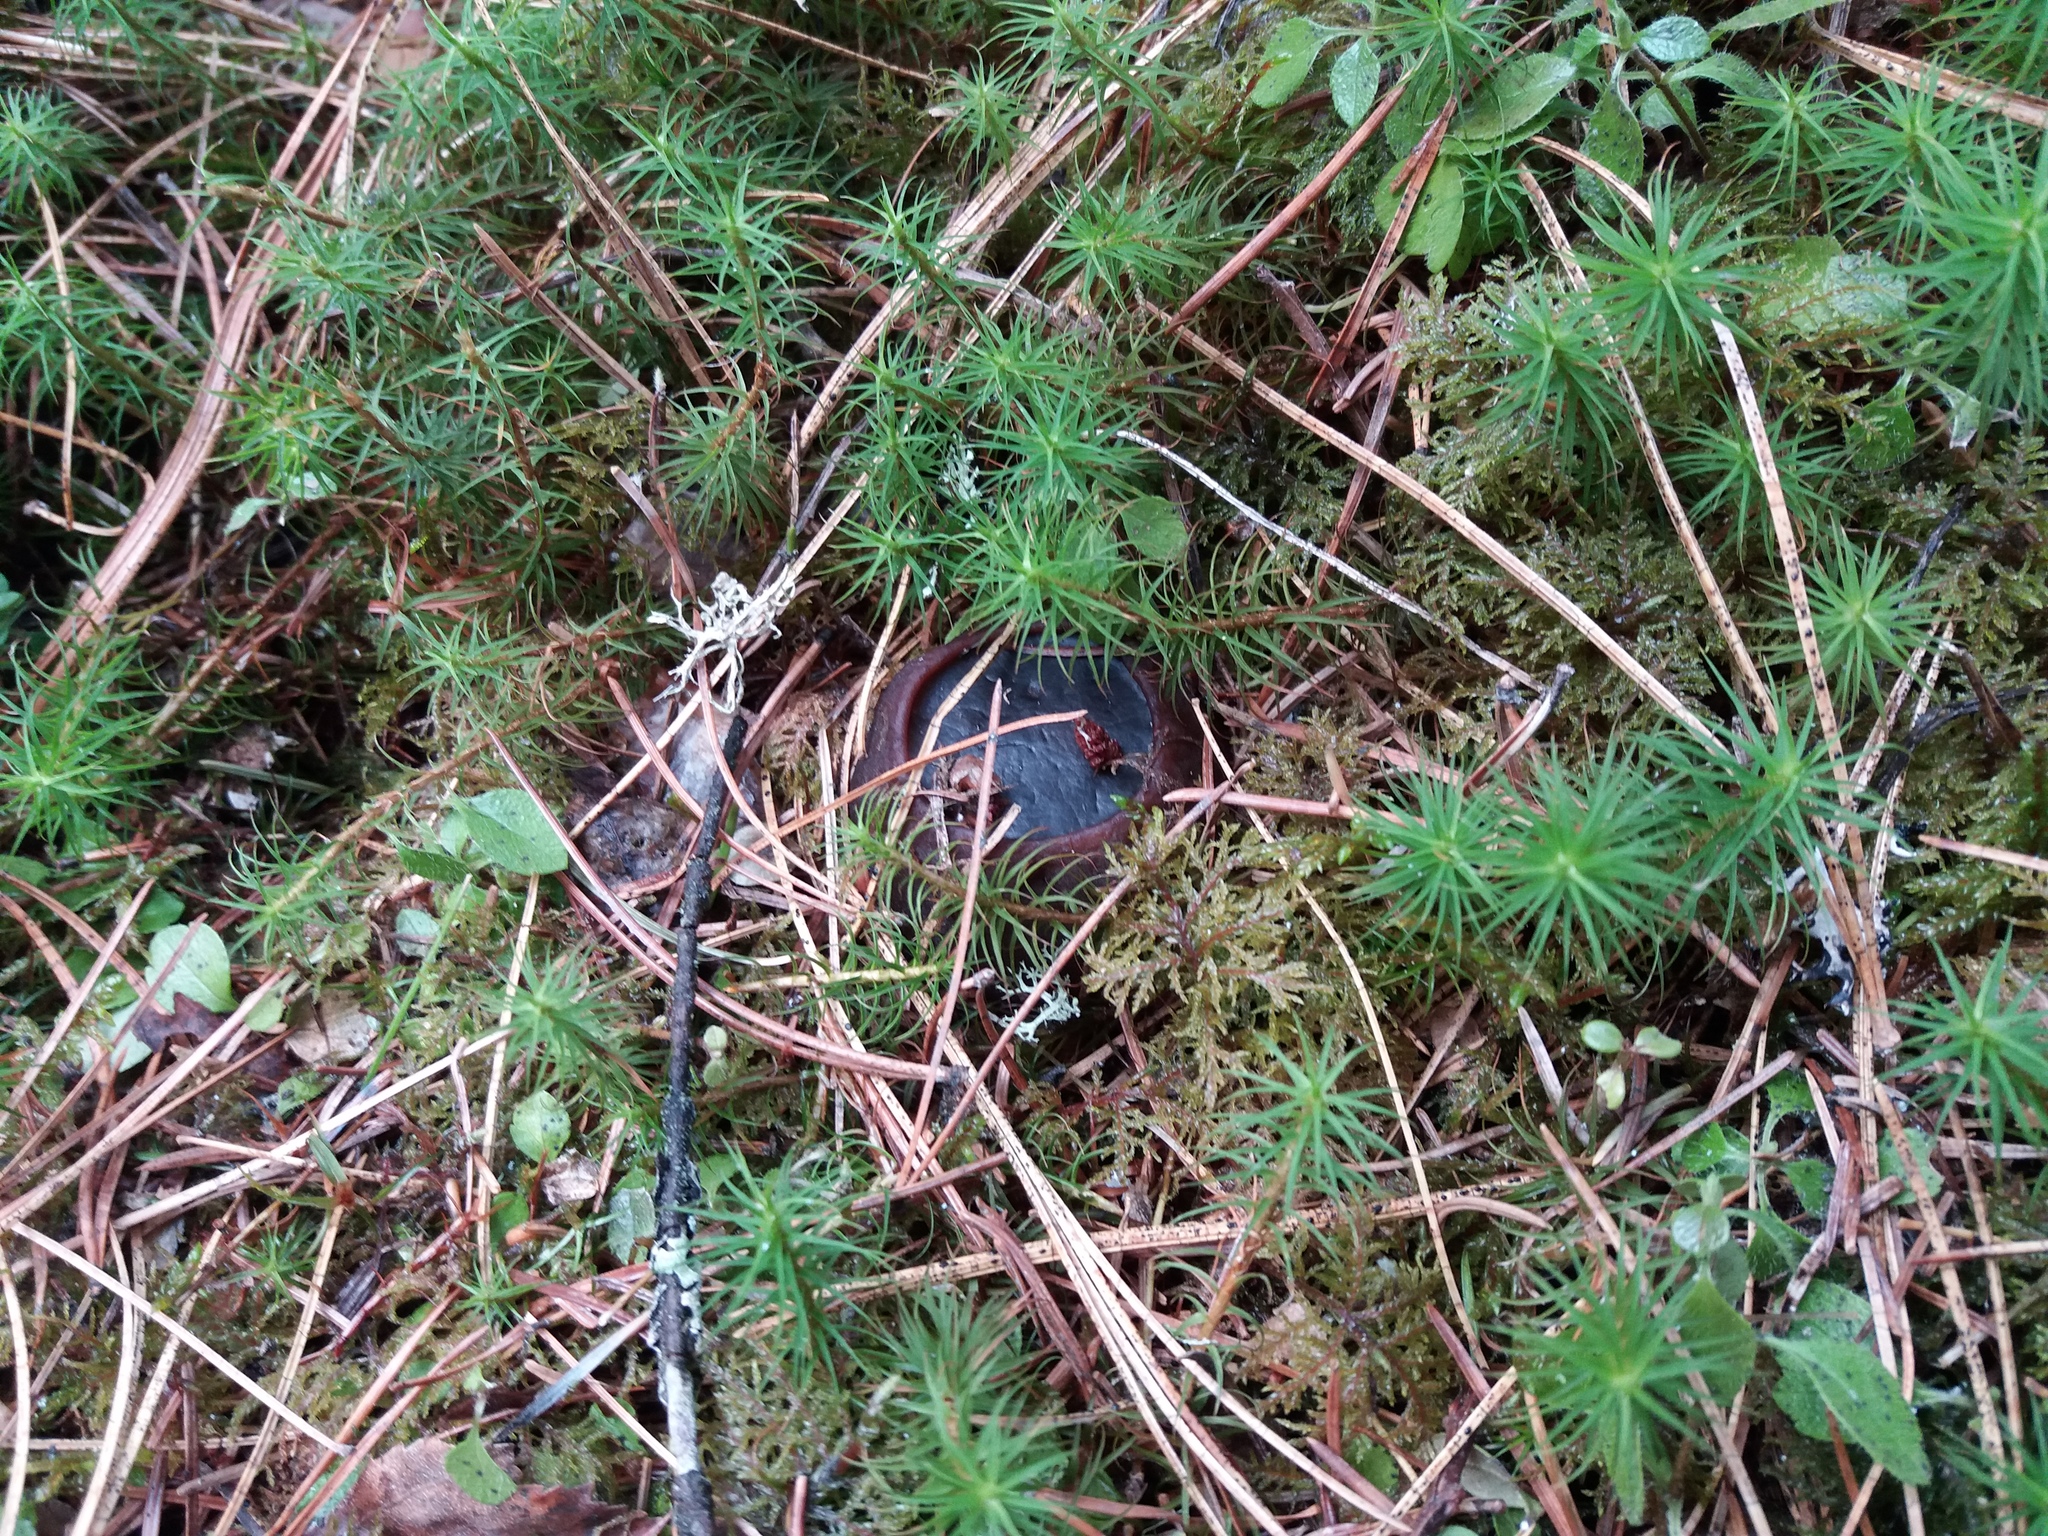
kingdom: Fungi
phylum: Ascomycota
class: Pezizomycetes
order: Pezizales
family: Sarcosomataceae
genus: Sarcosoma
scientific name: Sarcosoma globosum
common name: Charred-pancake cup
